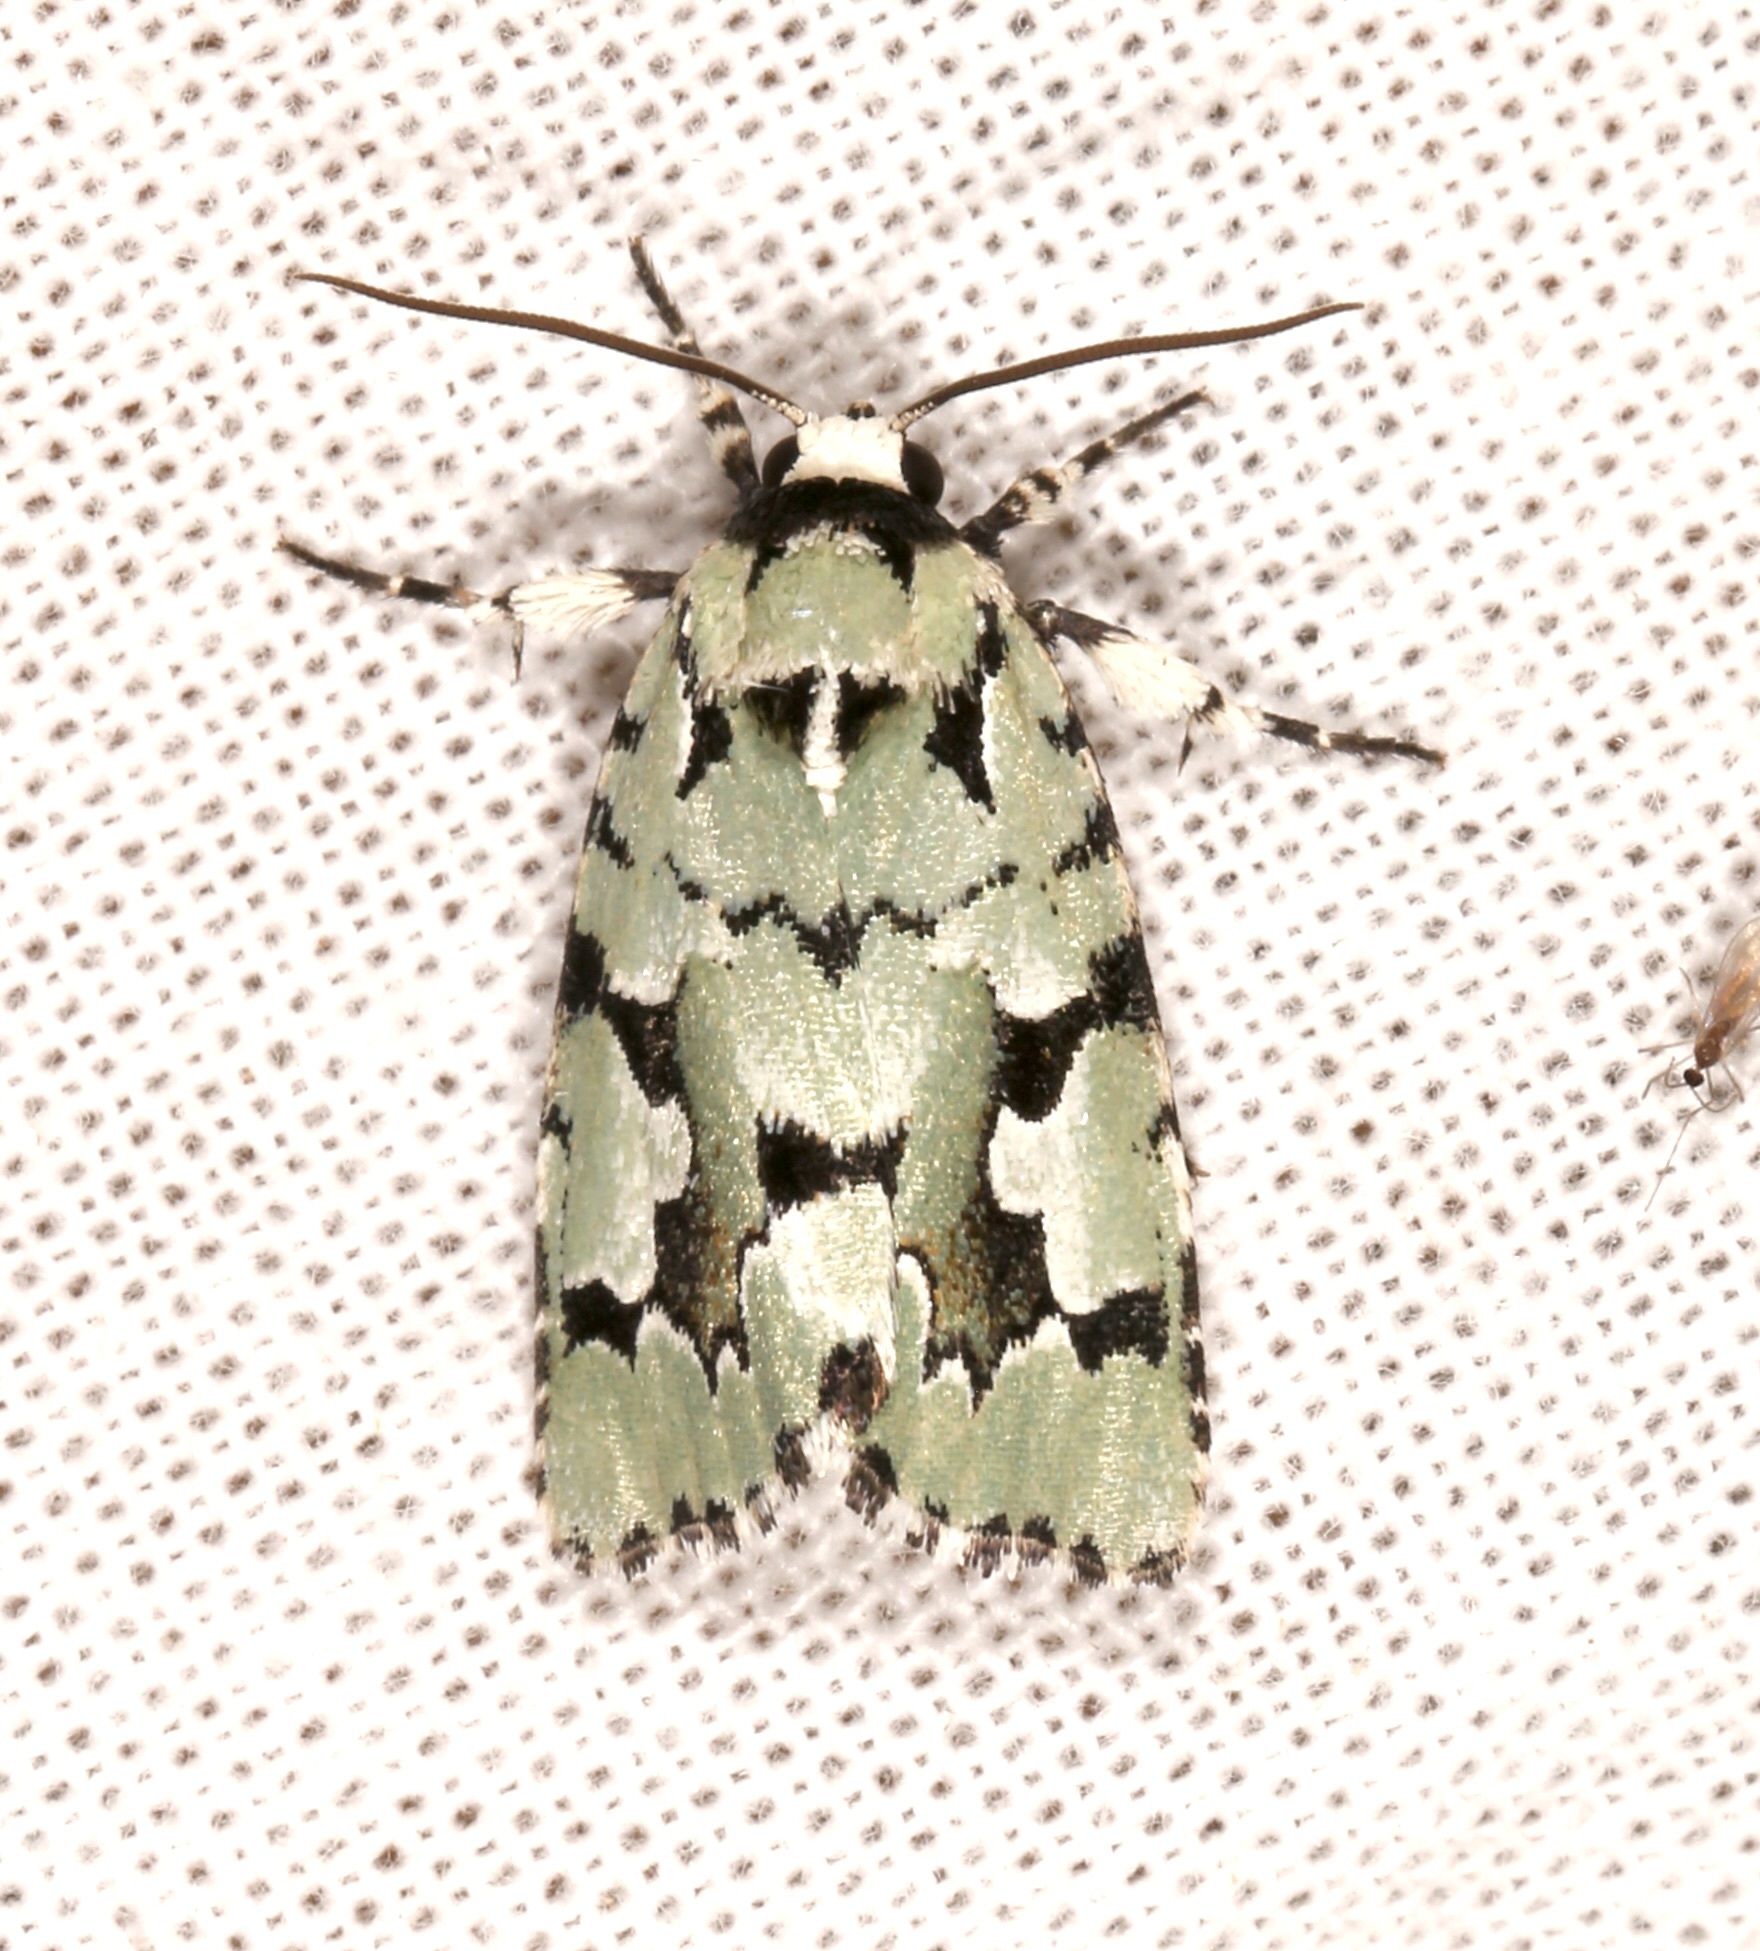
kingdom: Animalia
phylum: Arthropoda
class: Insecta
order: Lepidoptera
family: Noctuidae
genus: Emarginea
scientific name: Emarginea dulcinea
